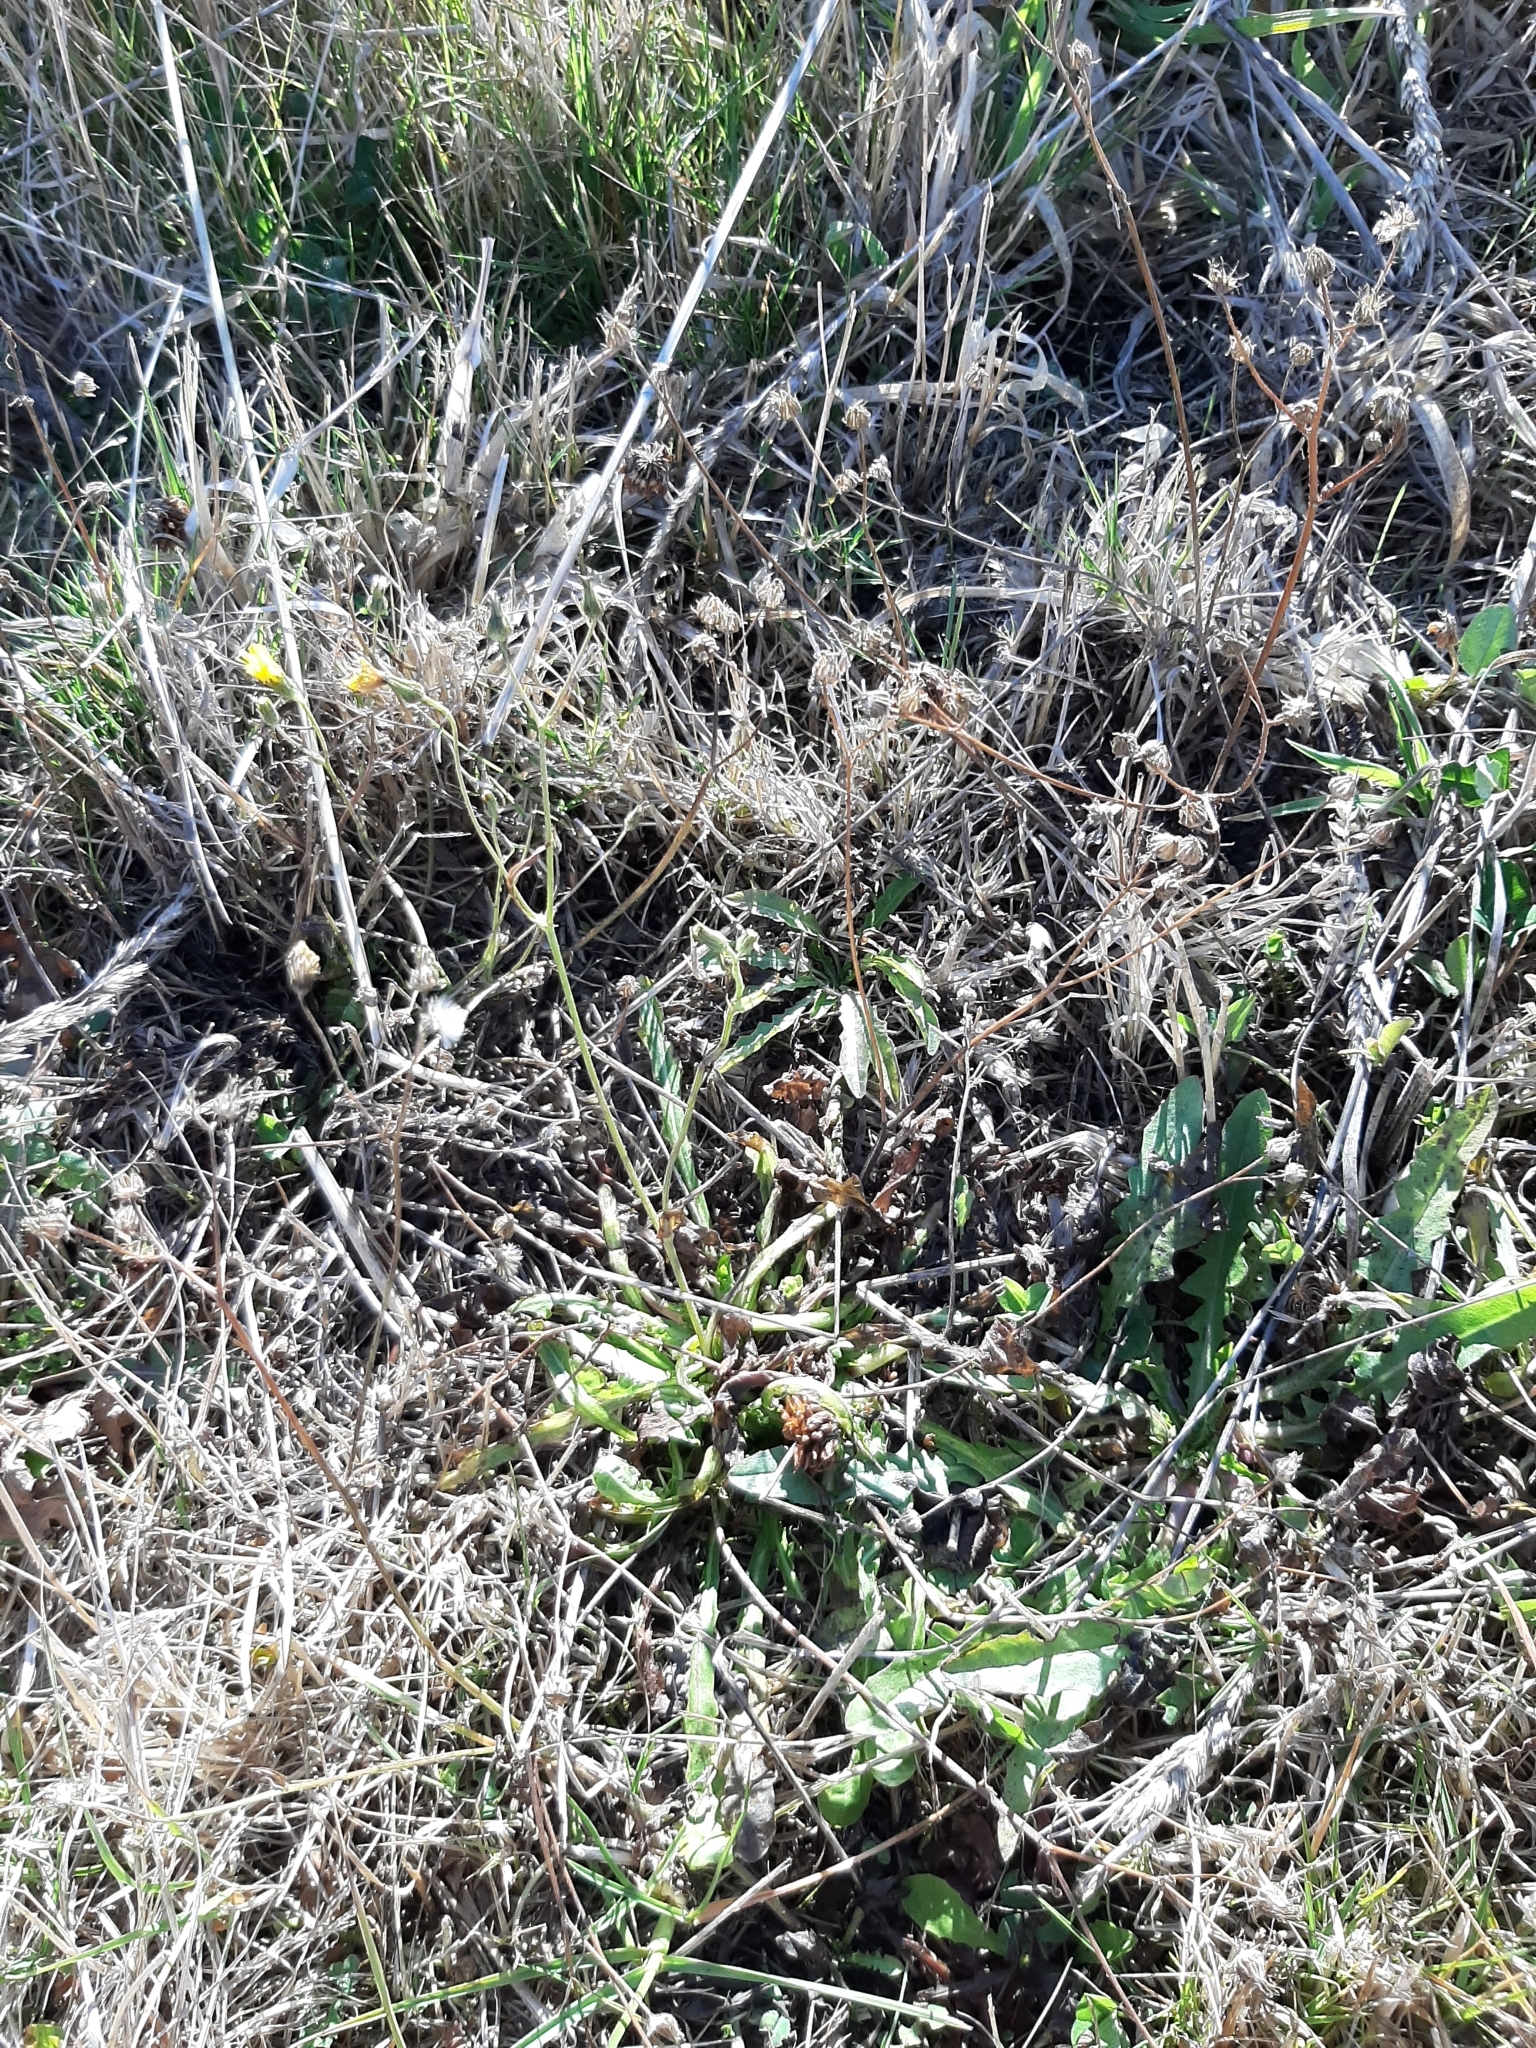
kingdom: Plantae
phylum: Tracheophyta
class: Magnoliopsida
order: Asterales
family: Asteraceae
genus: Crepis
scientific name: Crepis capillaris
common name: Smooth hawksbeard
